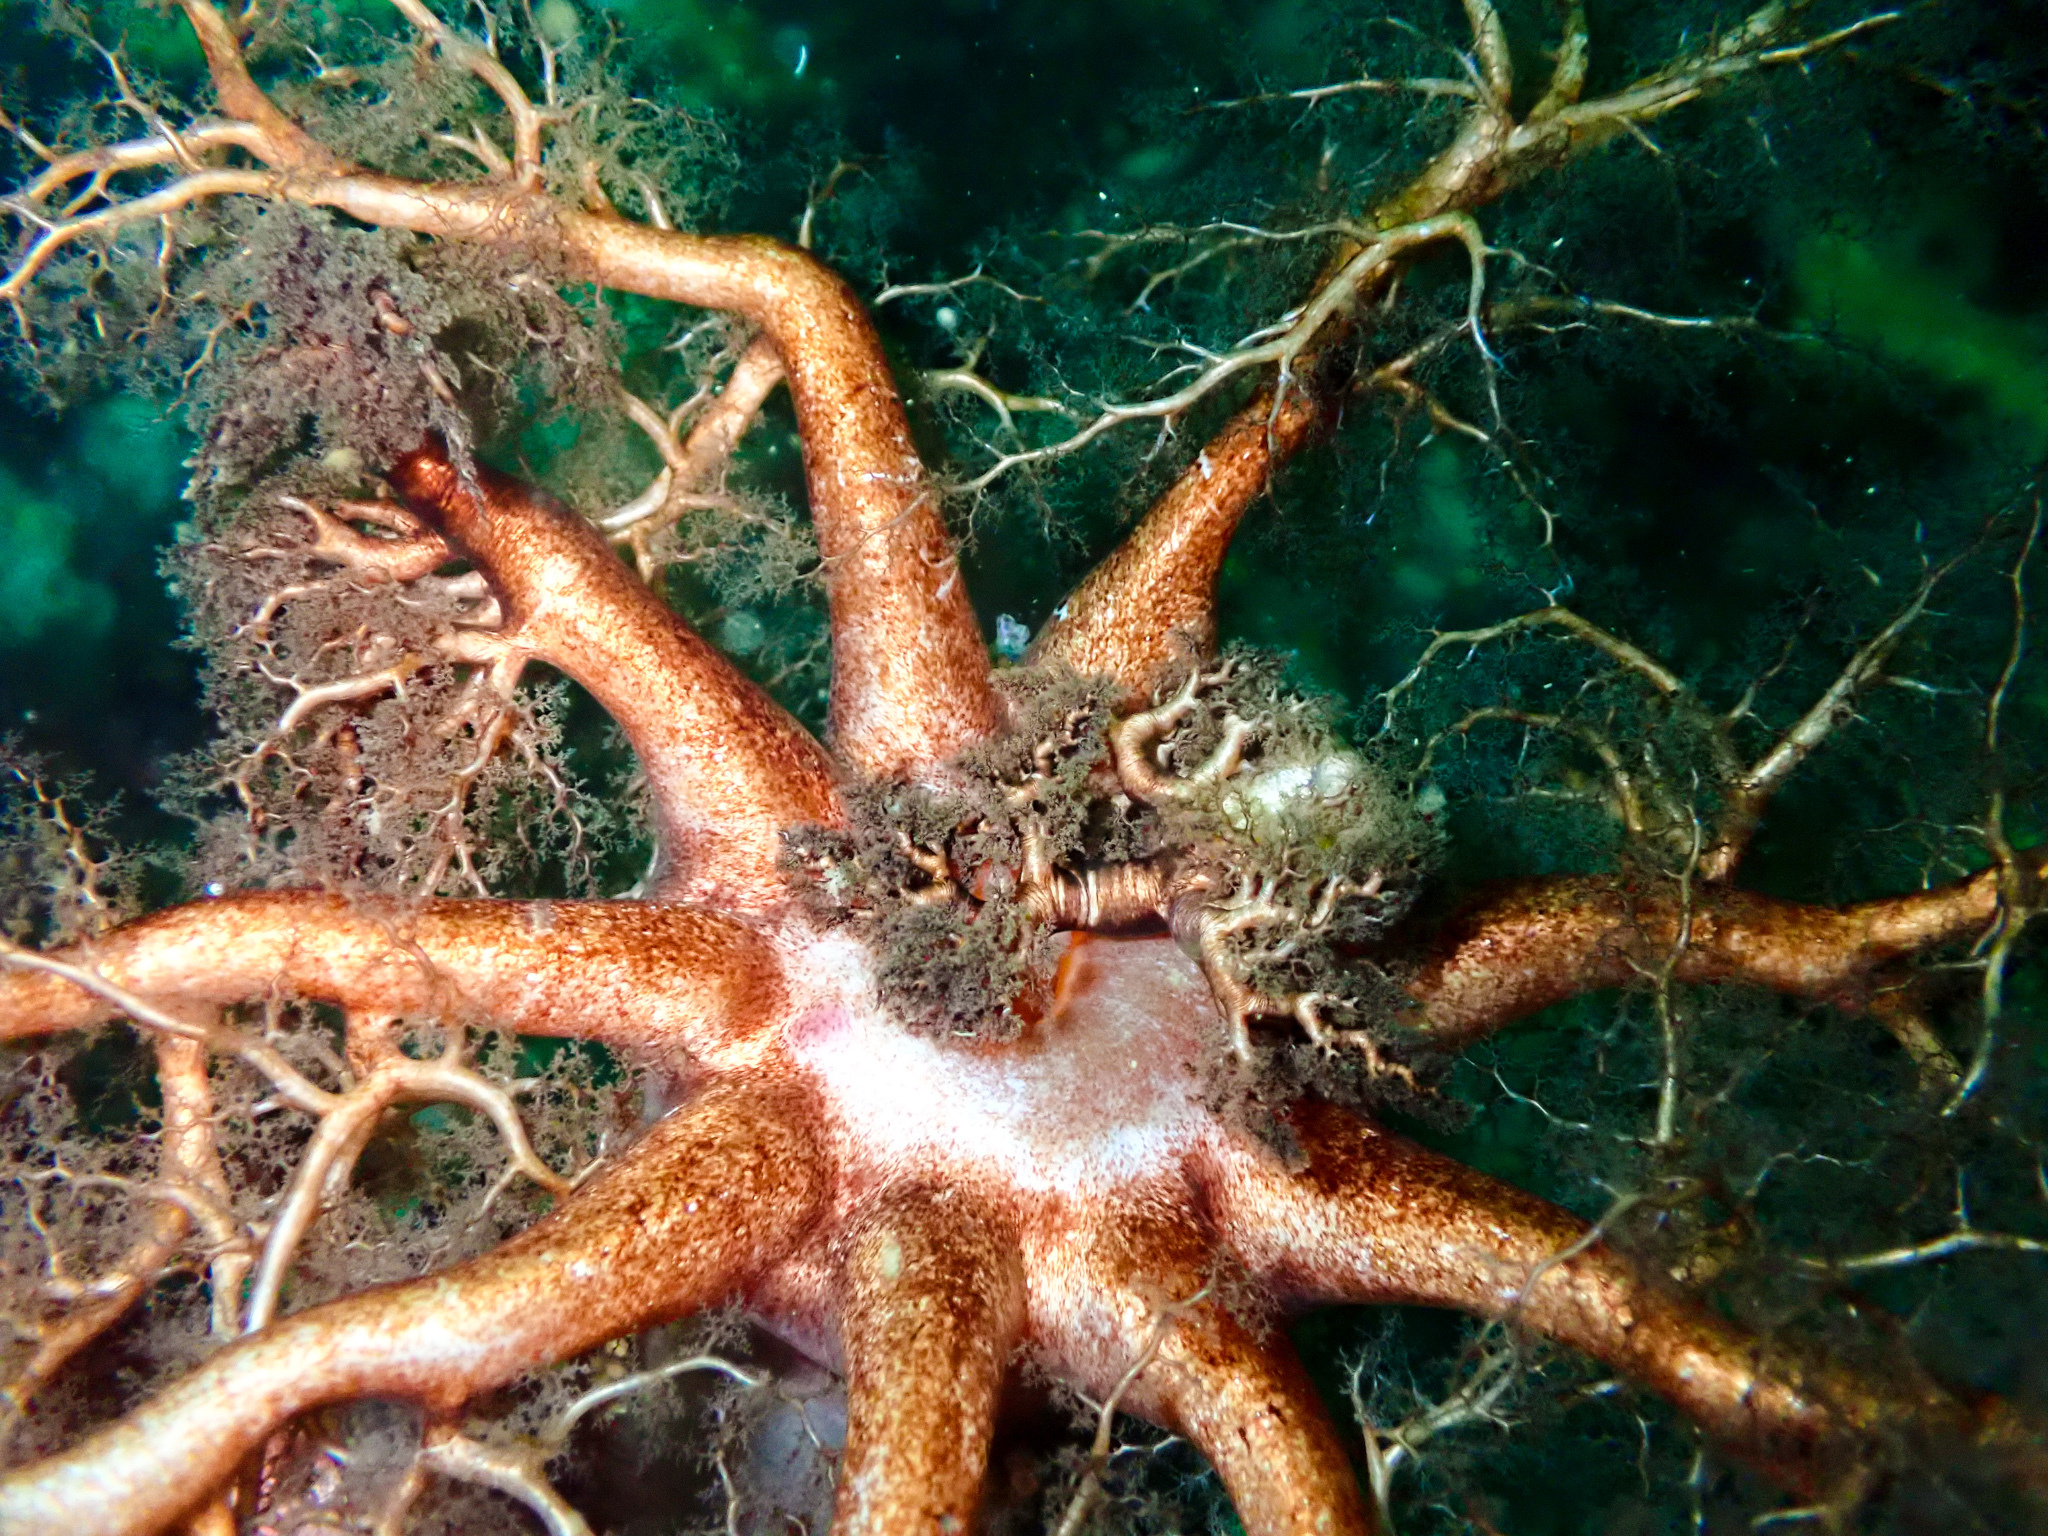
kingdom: Animalia
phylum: Echinodermata
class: Holothuroidea
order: Dendrochirotida
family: Cucumariidae
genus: Cucumaria
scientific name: Cucumaria frondosa
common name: Orange-footed sea cucumber
